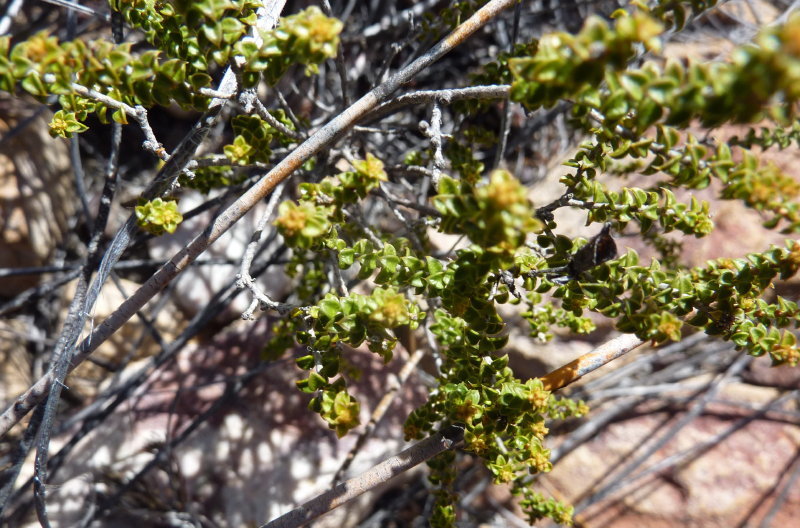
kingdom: Plantae
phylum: Tracheophyta
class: Magnoliopsida
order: Sapindales
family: Rutaceae
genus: Agathosma
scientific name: Agathosma recurvifolia
